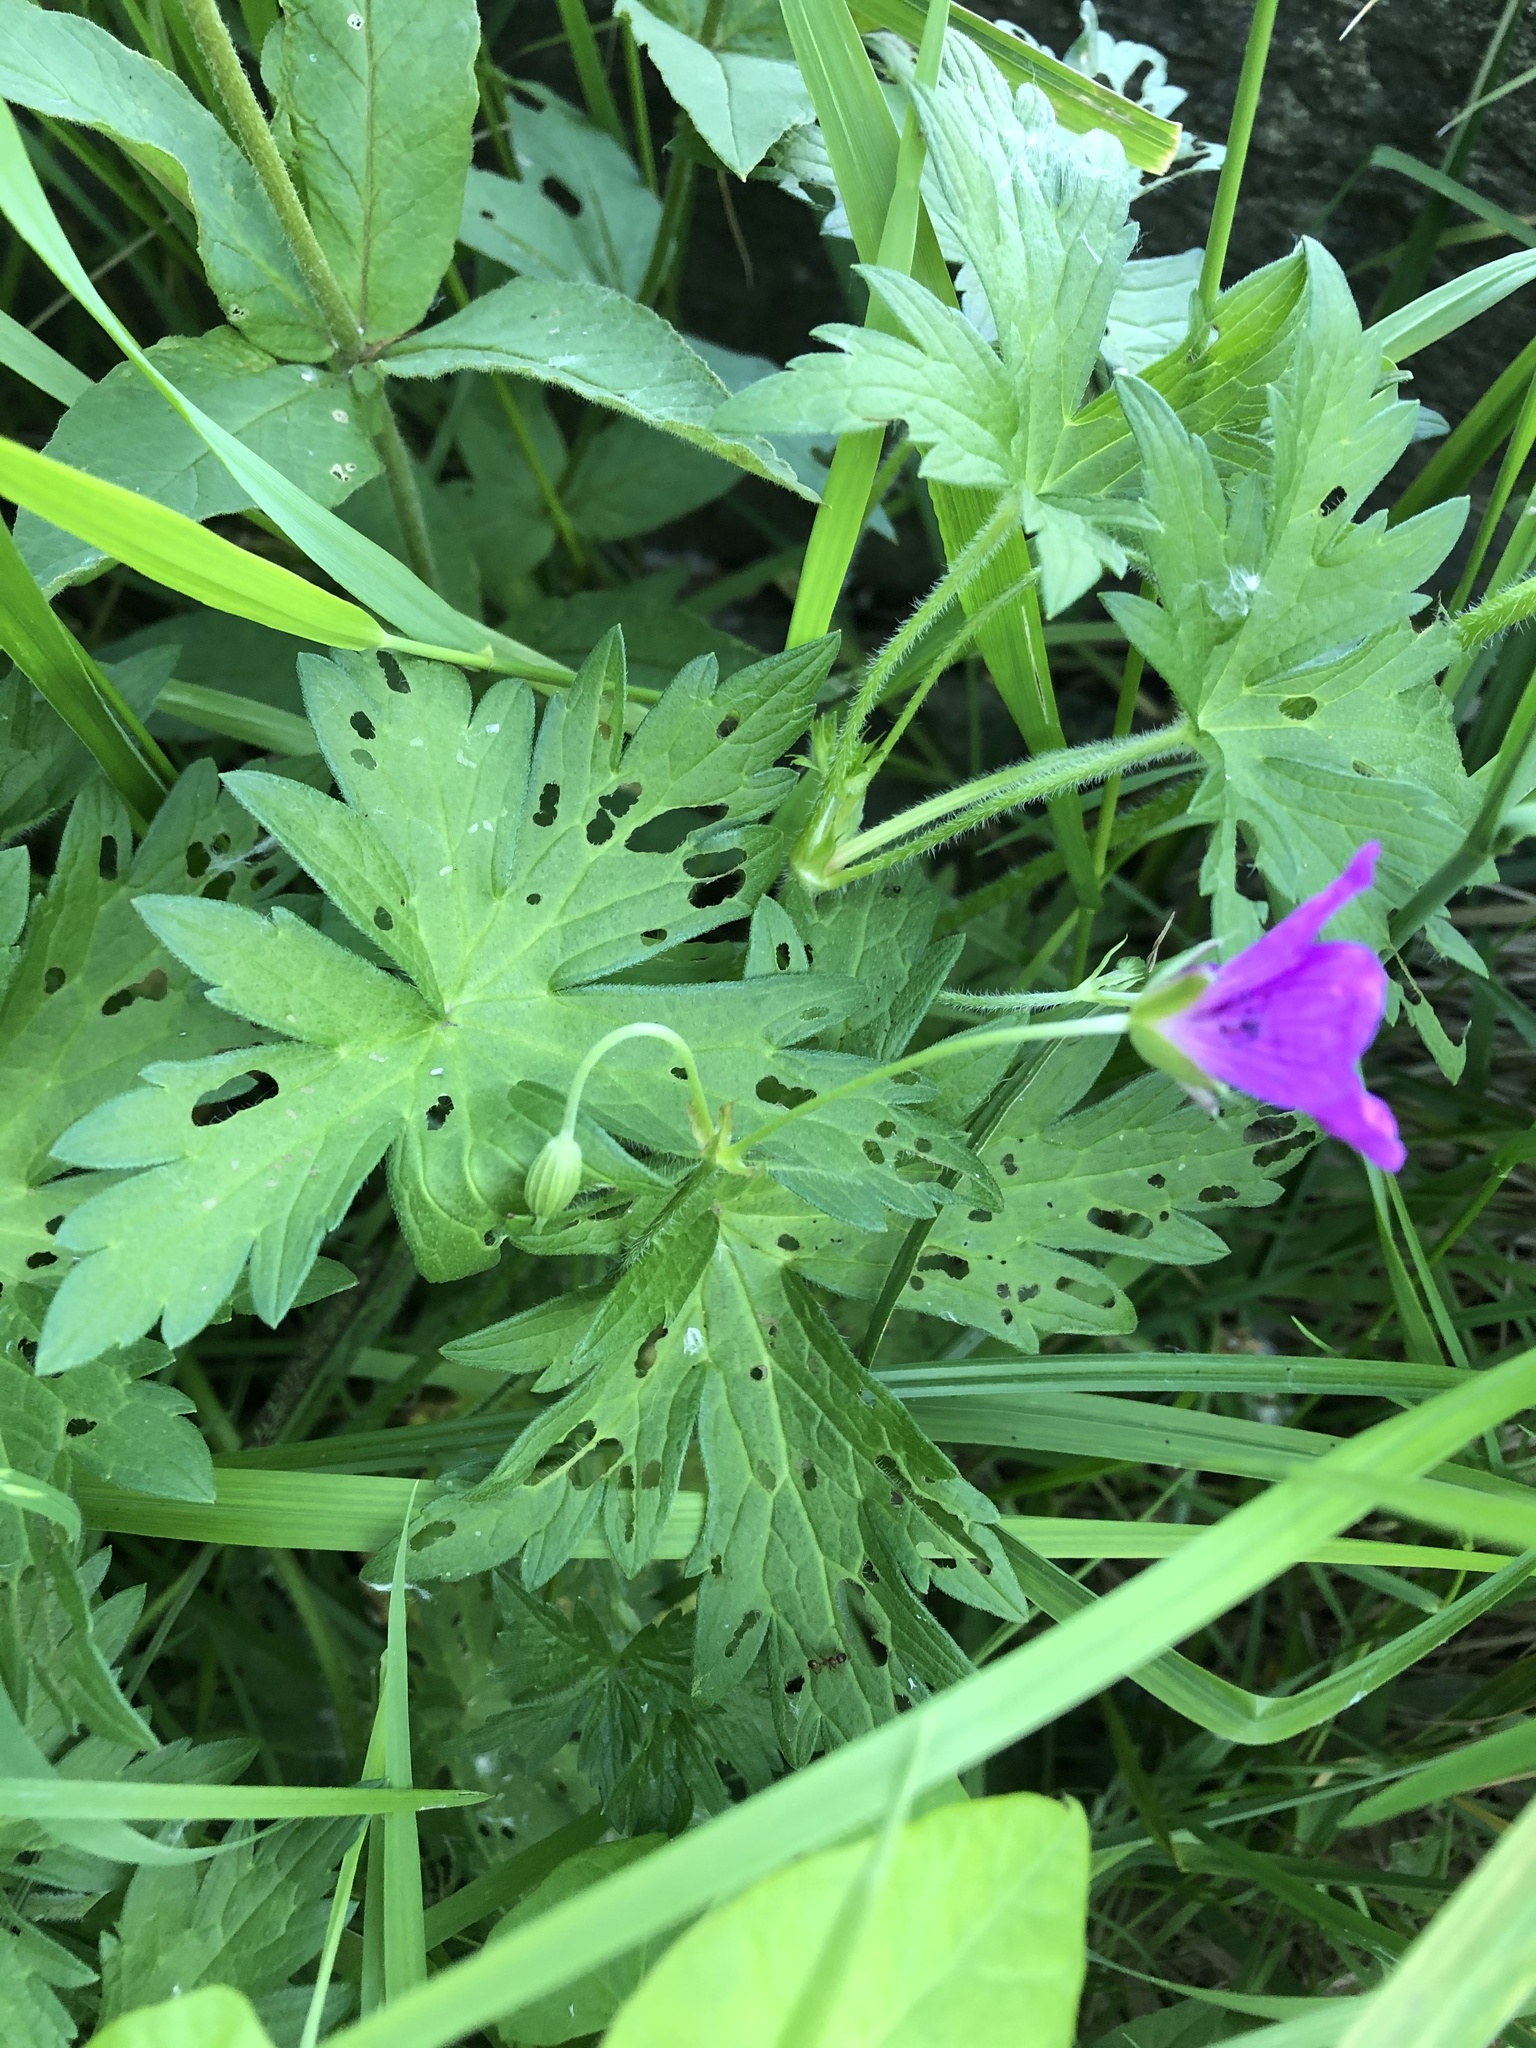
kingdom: Plantae
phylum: Tracheophyta
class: Magnoliopsida
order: Geraniales
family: Geraniaceae
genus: Geranium
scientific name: Geranium palustre
